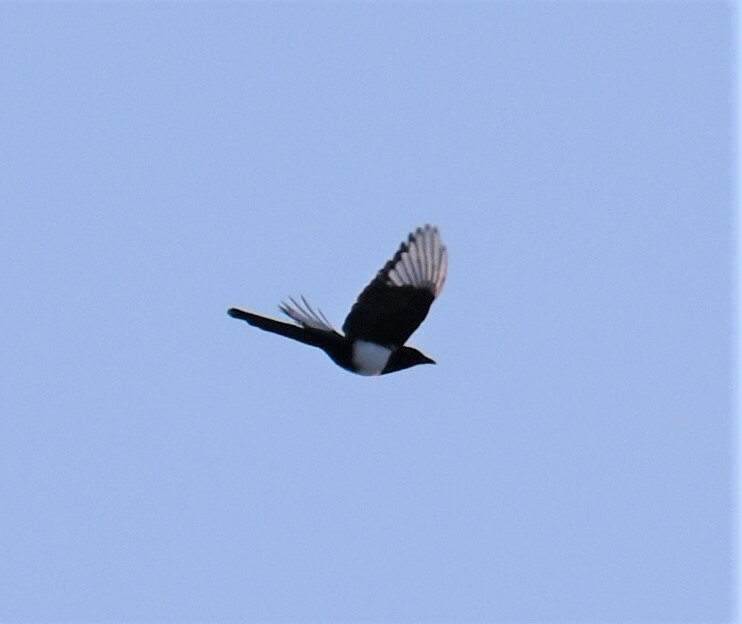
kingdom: Animalia
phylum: Chordata
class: Aves
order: Passeriformes
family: Corvidae
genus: Pica
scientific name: Pica hudsonia
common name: Black-billed magpie
